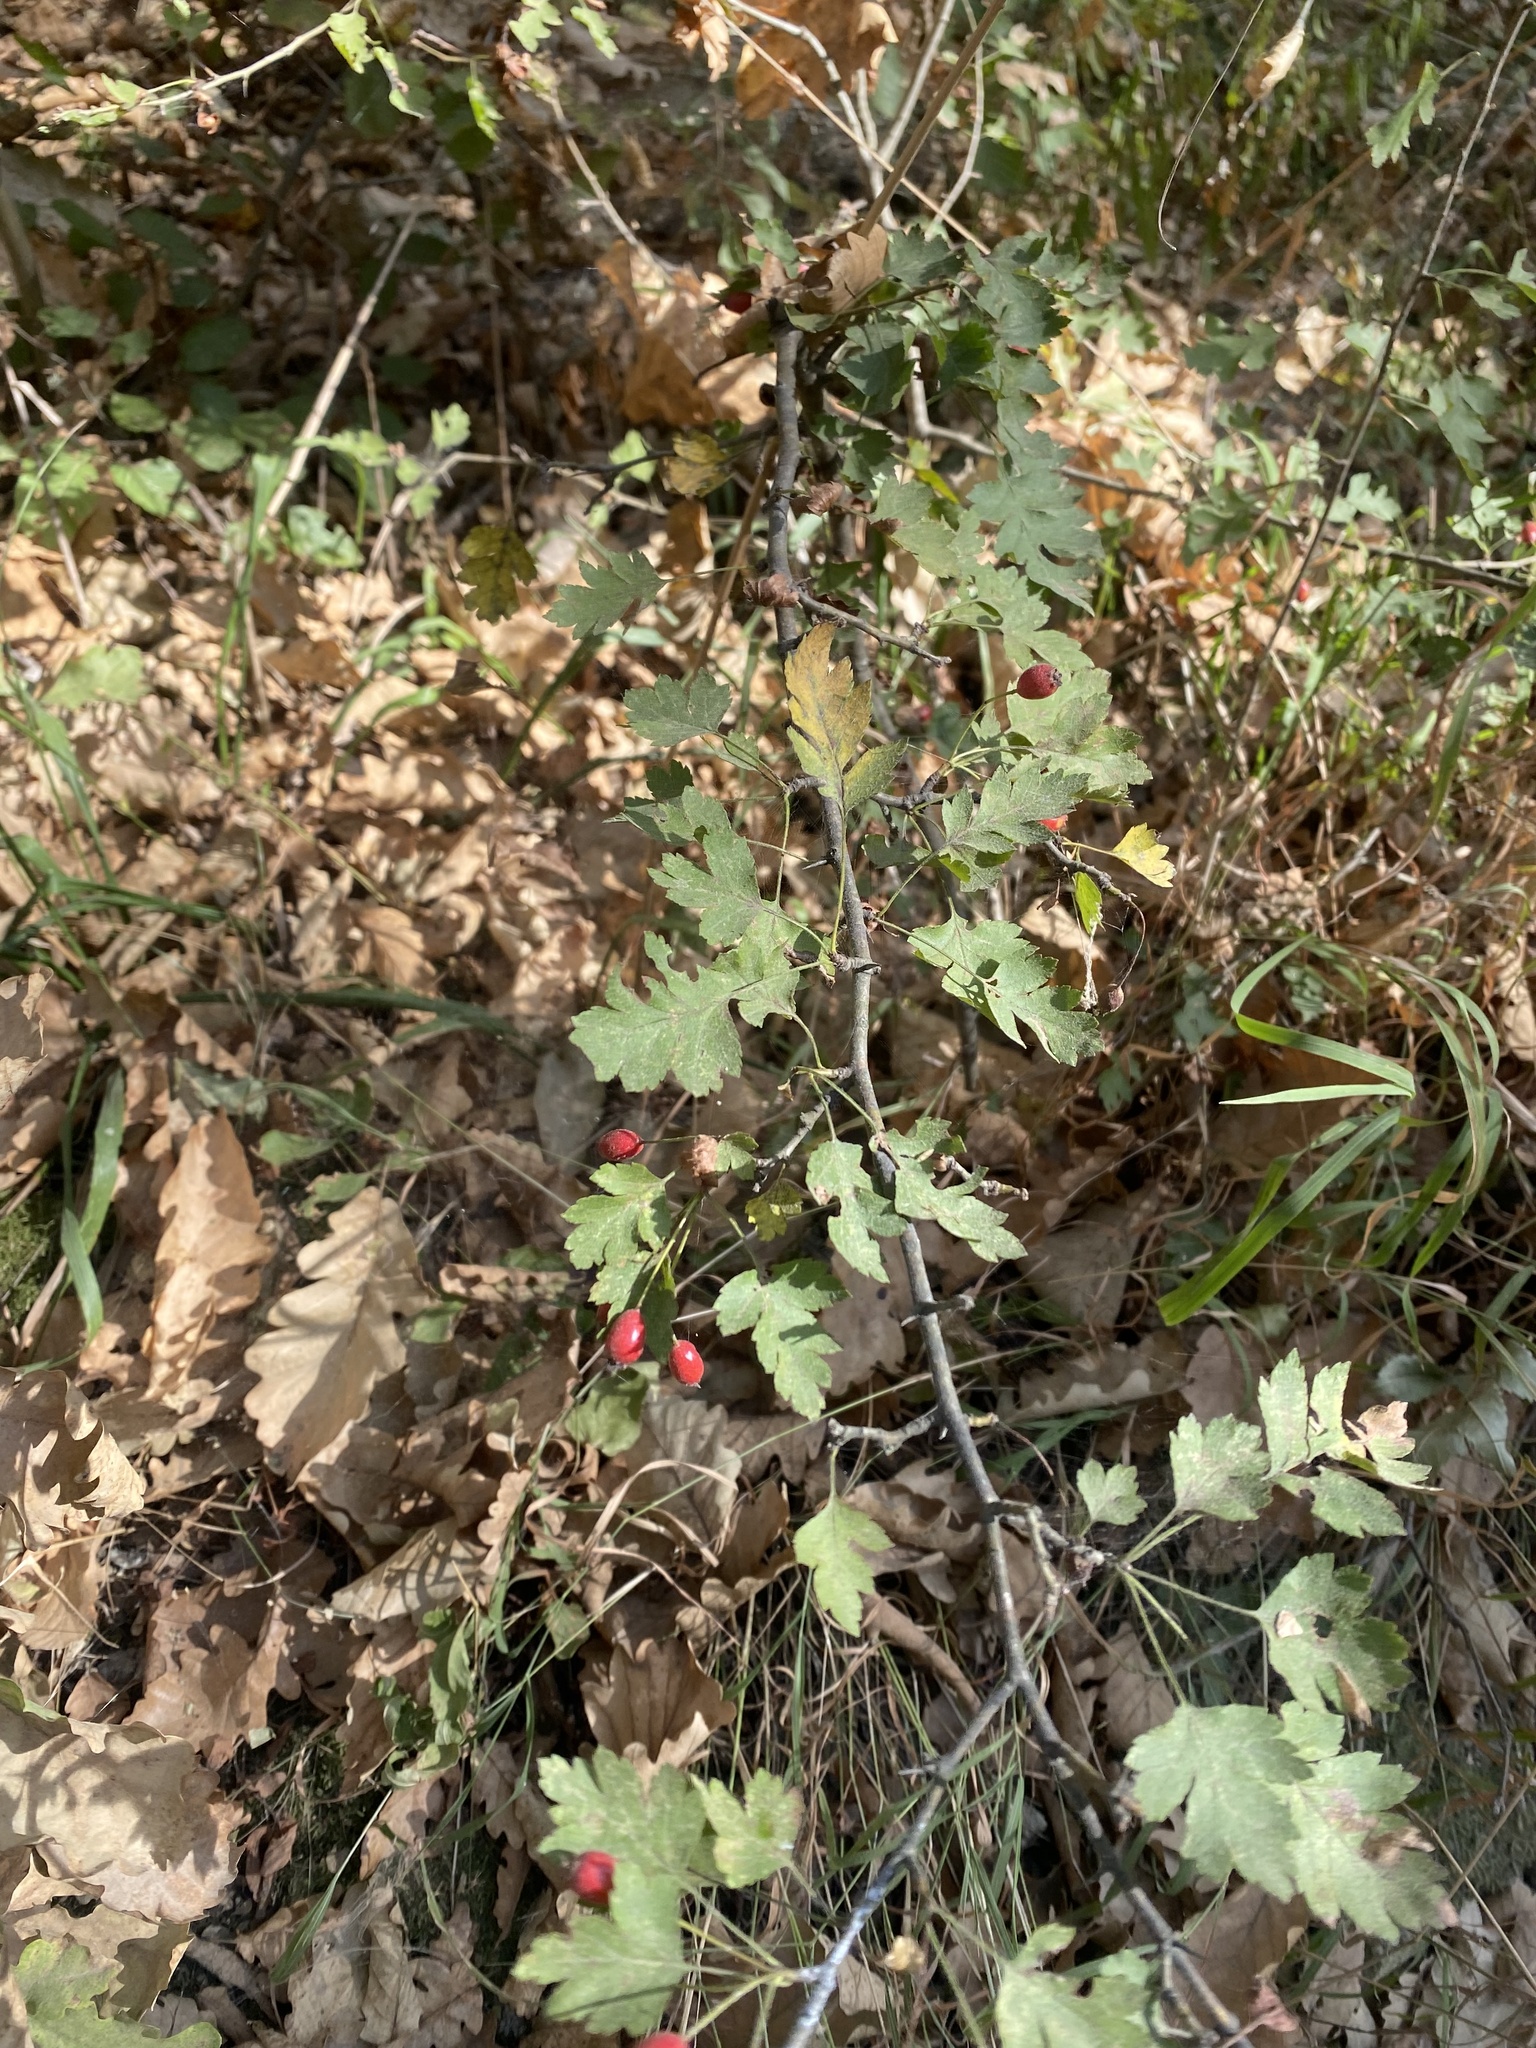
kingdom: Plantae
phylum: Tracheophyta
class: Magnoliopsida
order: Rosales
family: Rosaceae
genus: Crataegus
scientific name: Crataegus monogyna
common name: Hawthorn
